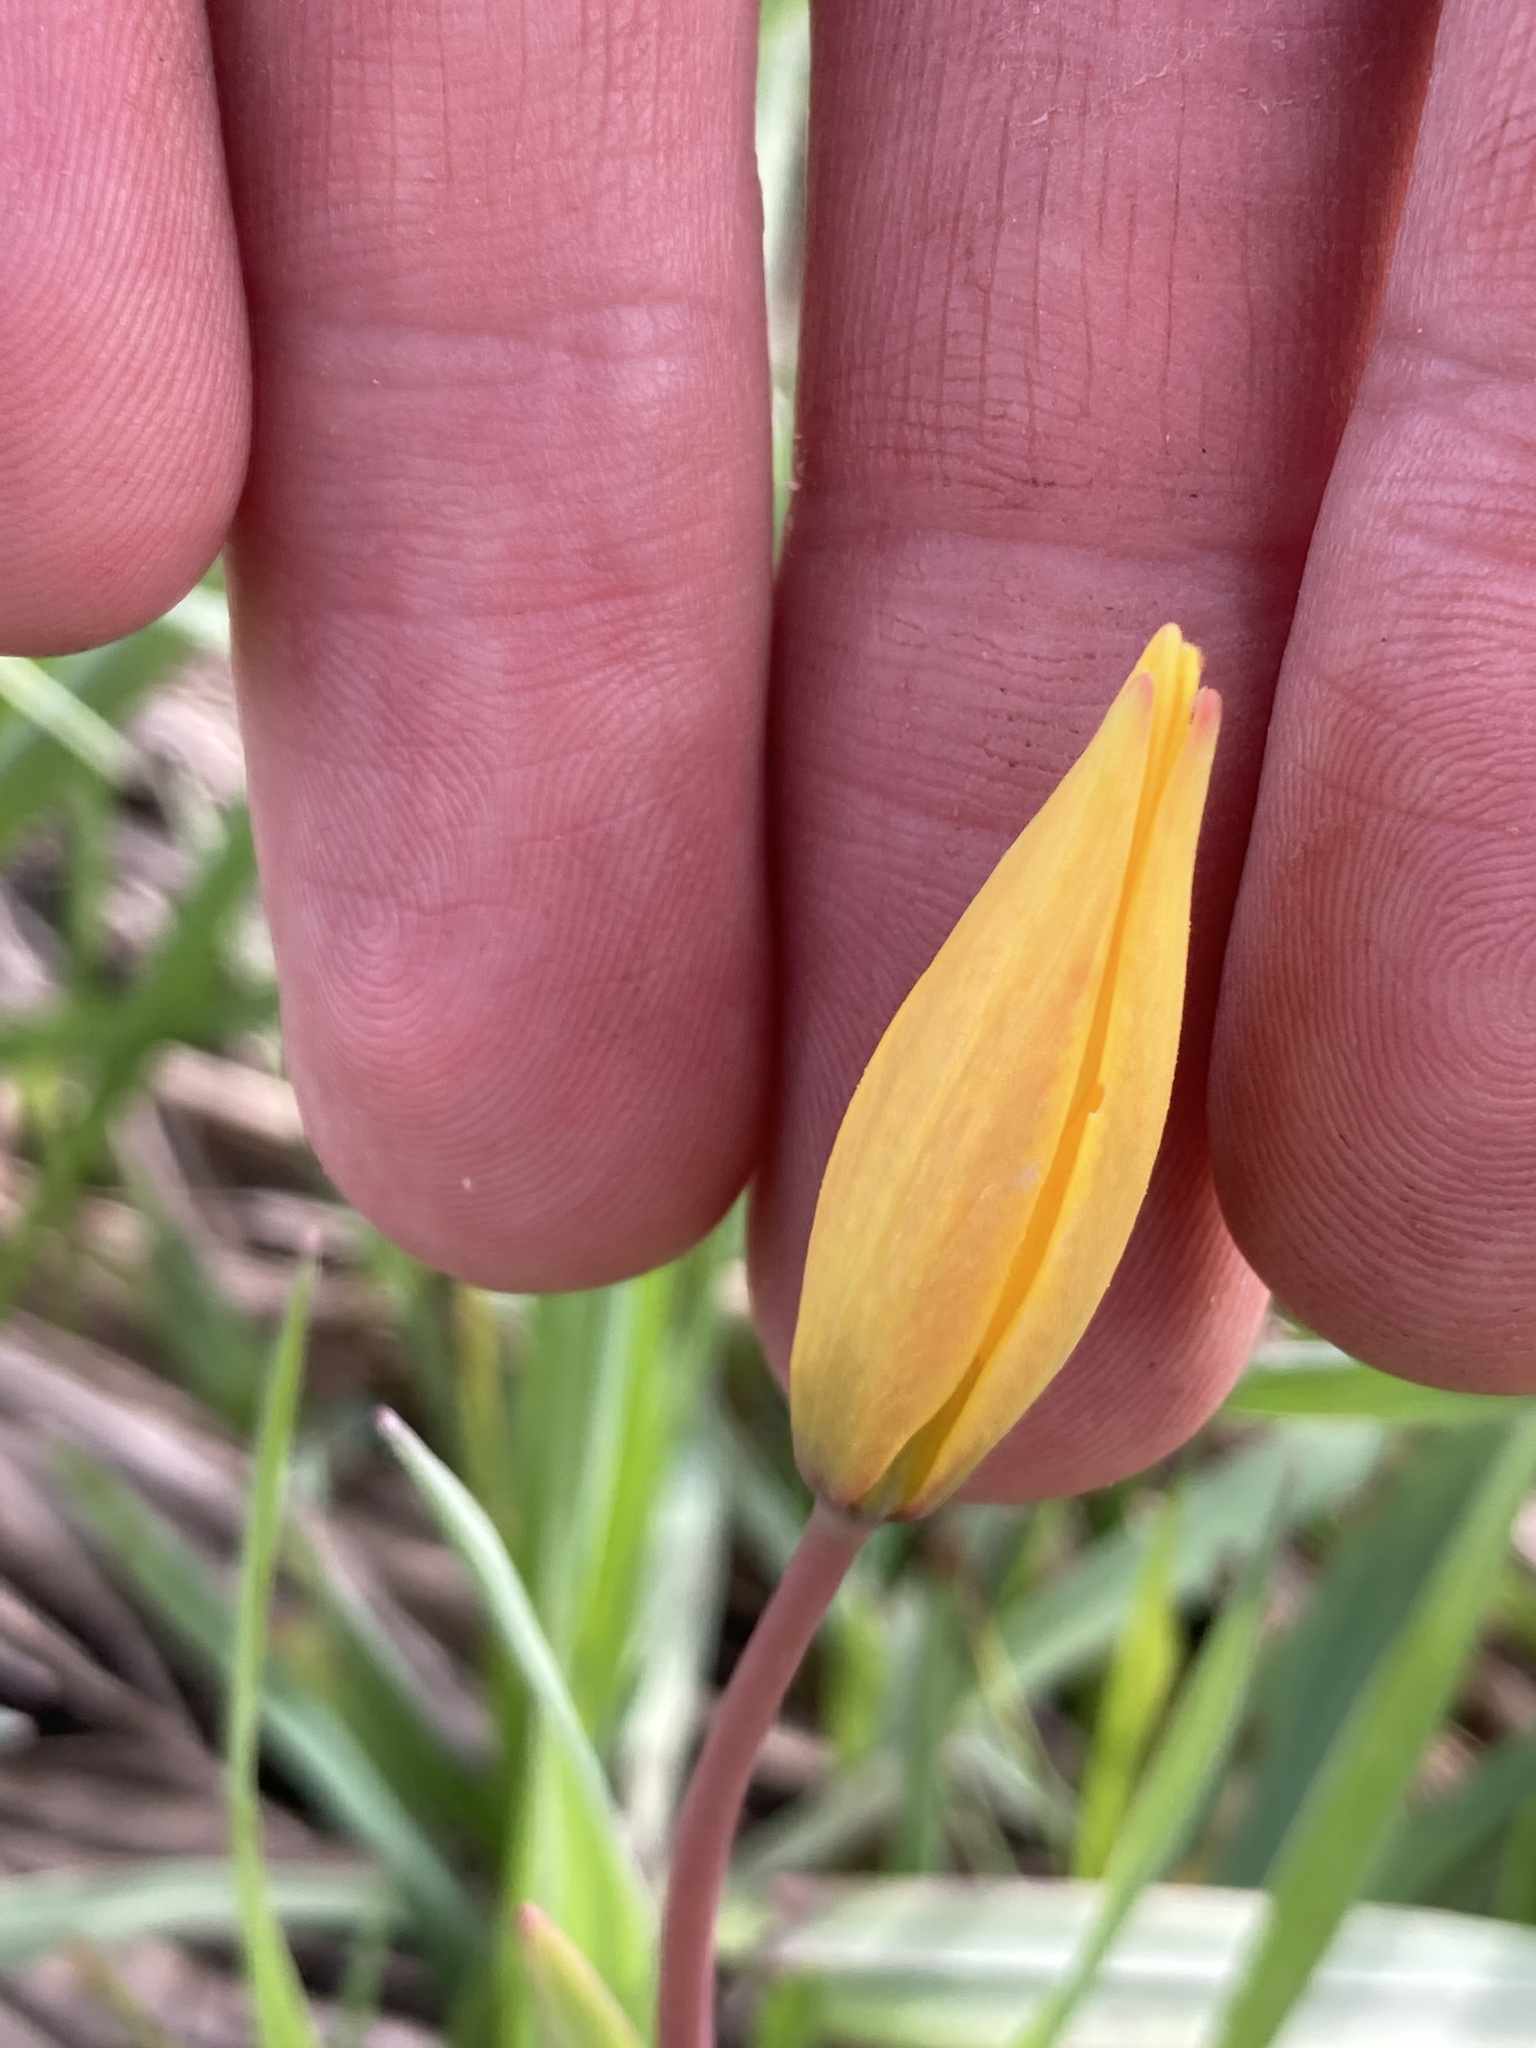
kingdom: Plantae
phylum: Tracheophyta
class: Liliopsida
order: Liliales
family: Liliaceae
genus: Tulipa
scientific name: Tulipa sylvestris
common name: Wild tulip
